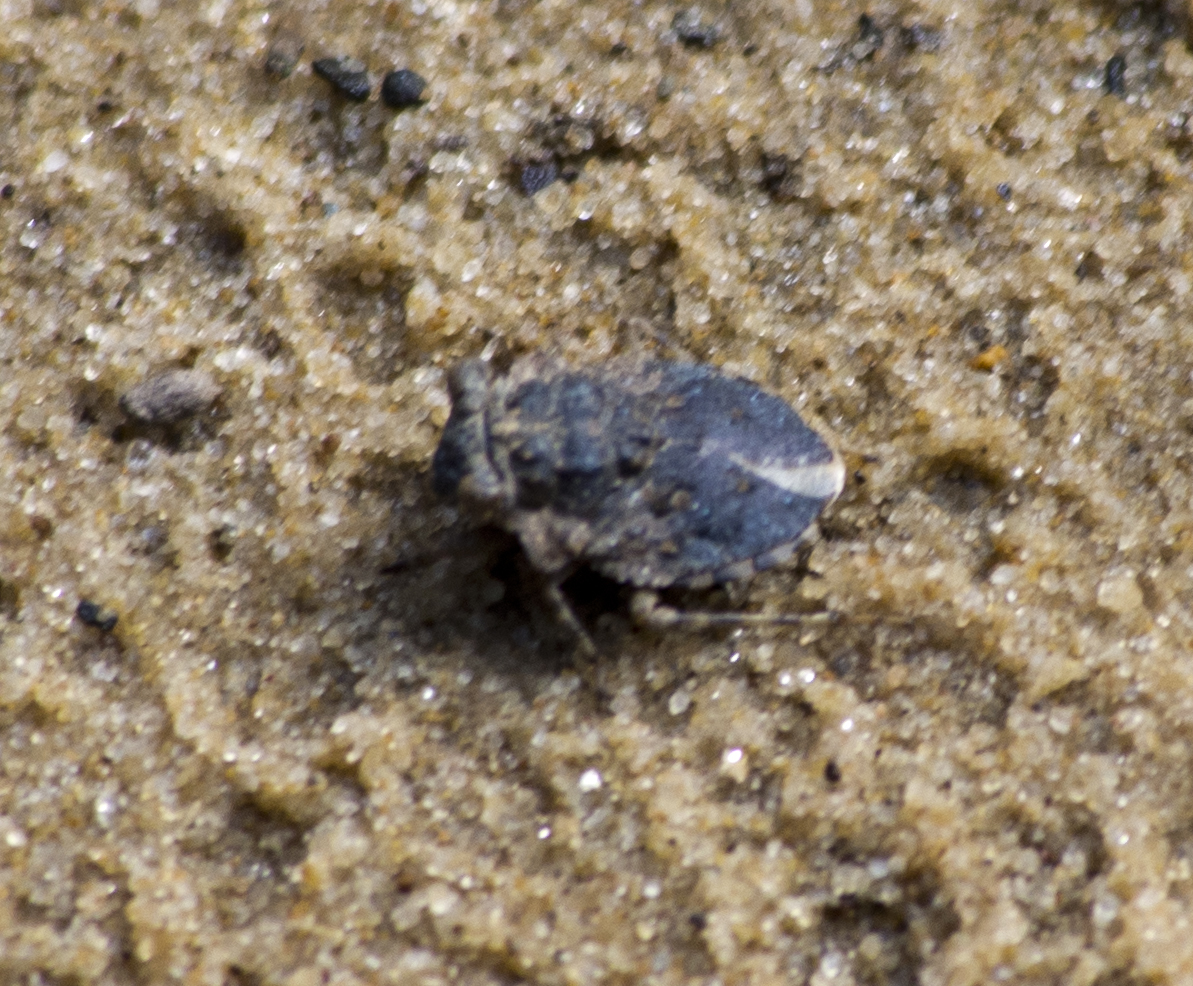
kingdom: Animalia
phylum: Arthropoda
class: Insecta
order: Hemiptera
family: Gelastocoridae
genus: Gelastocoris
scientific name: Gelastocoris oculatus
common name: Toad bug
